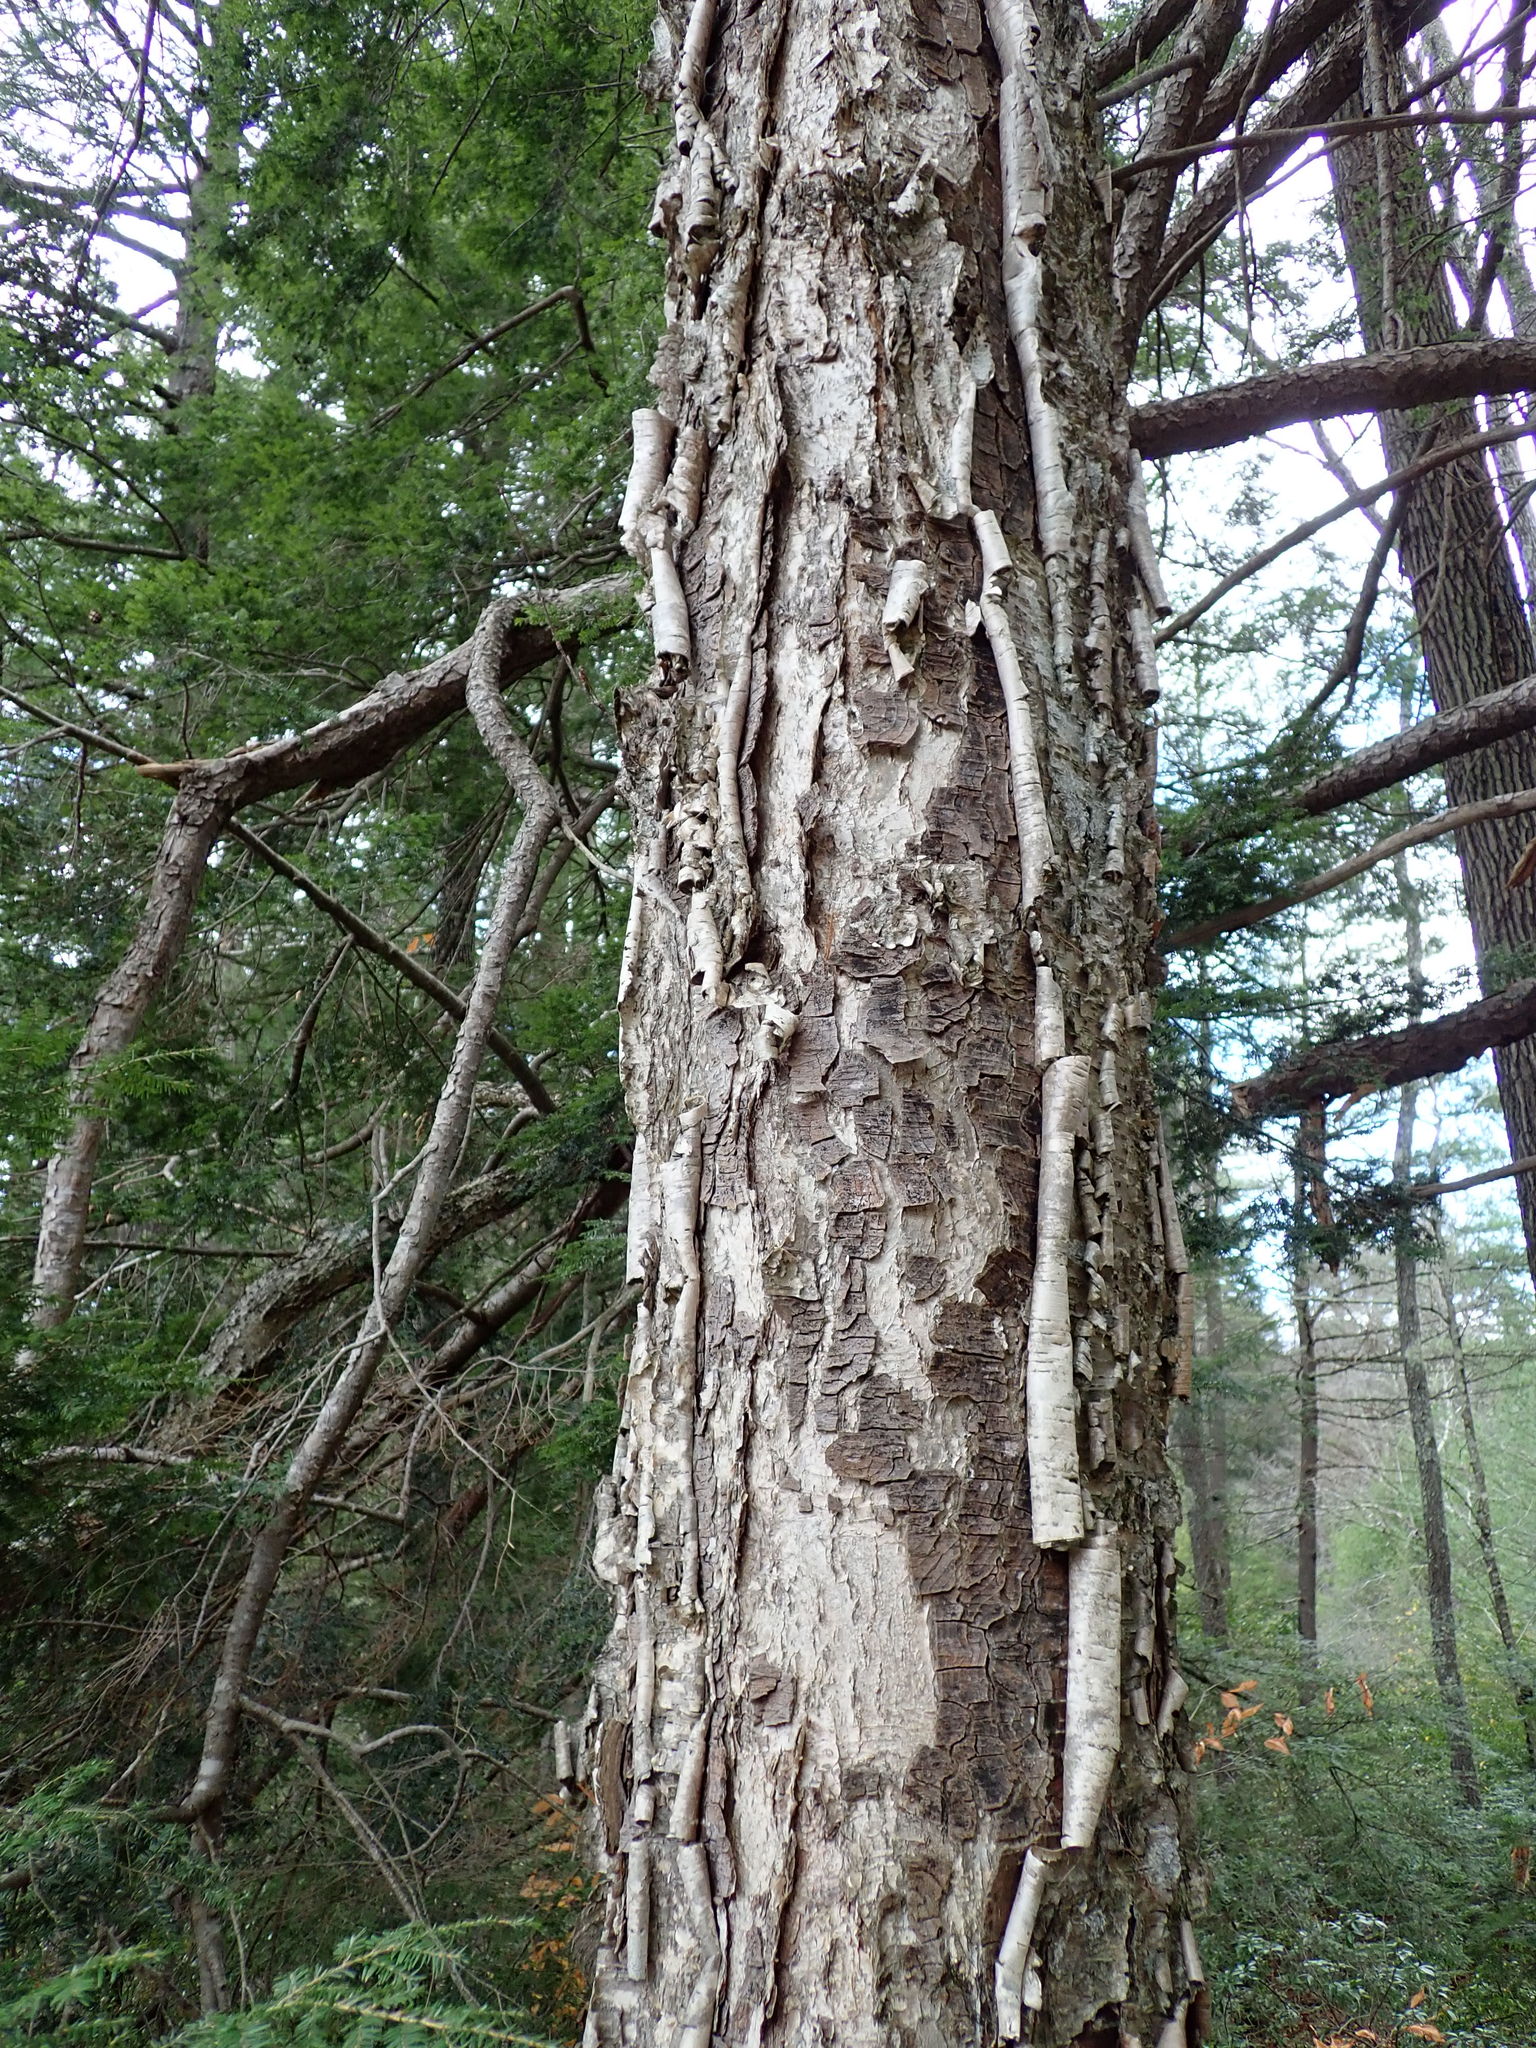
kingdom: Plantae
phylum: Tracheophyta
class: Magnoliopsida
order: Fagales
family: Betulaceae
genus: Betula
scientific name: Betula alleghaniensis
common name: Yellow birch
